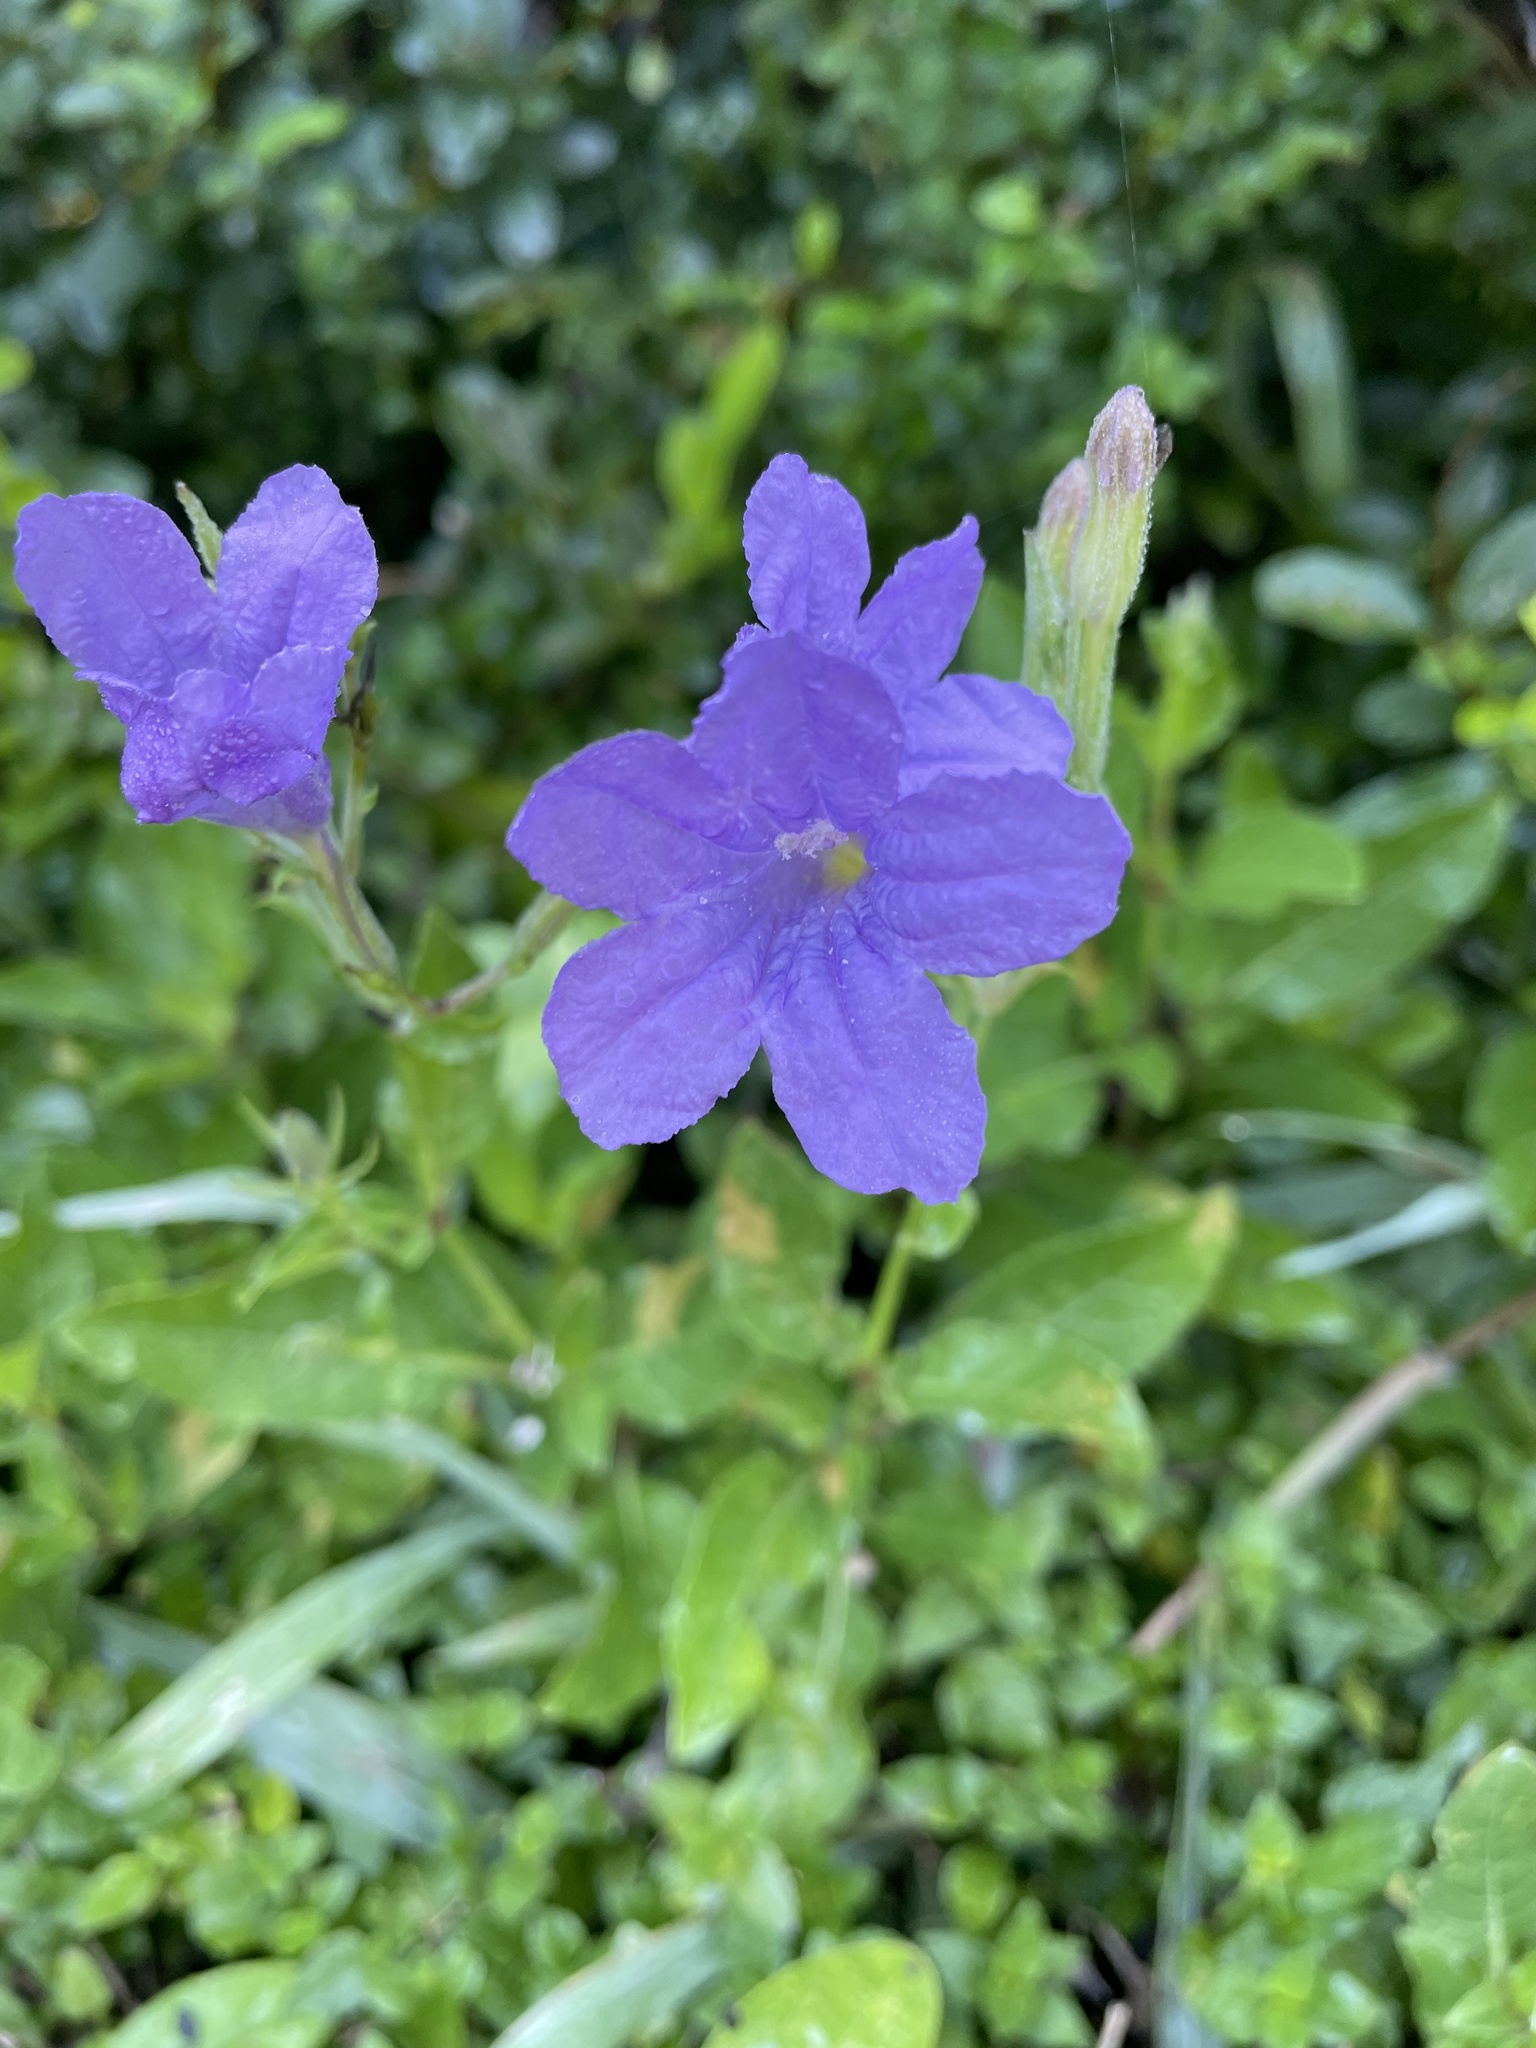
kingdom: Plantae
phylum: Tracheophyta
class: Magnoliopsida
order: Lamiales
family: Acanthaceae
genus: Ruellia
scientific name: Ruellia ciliatiflora
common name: Hairyflower wild petunia
